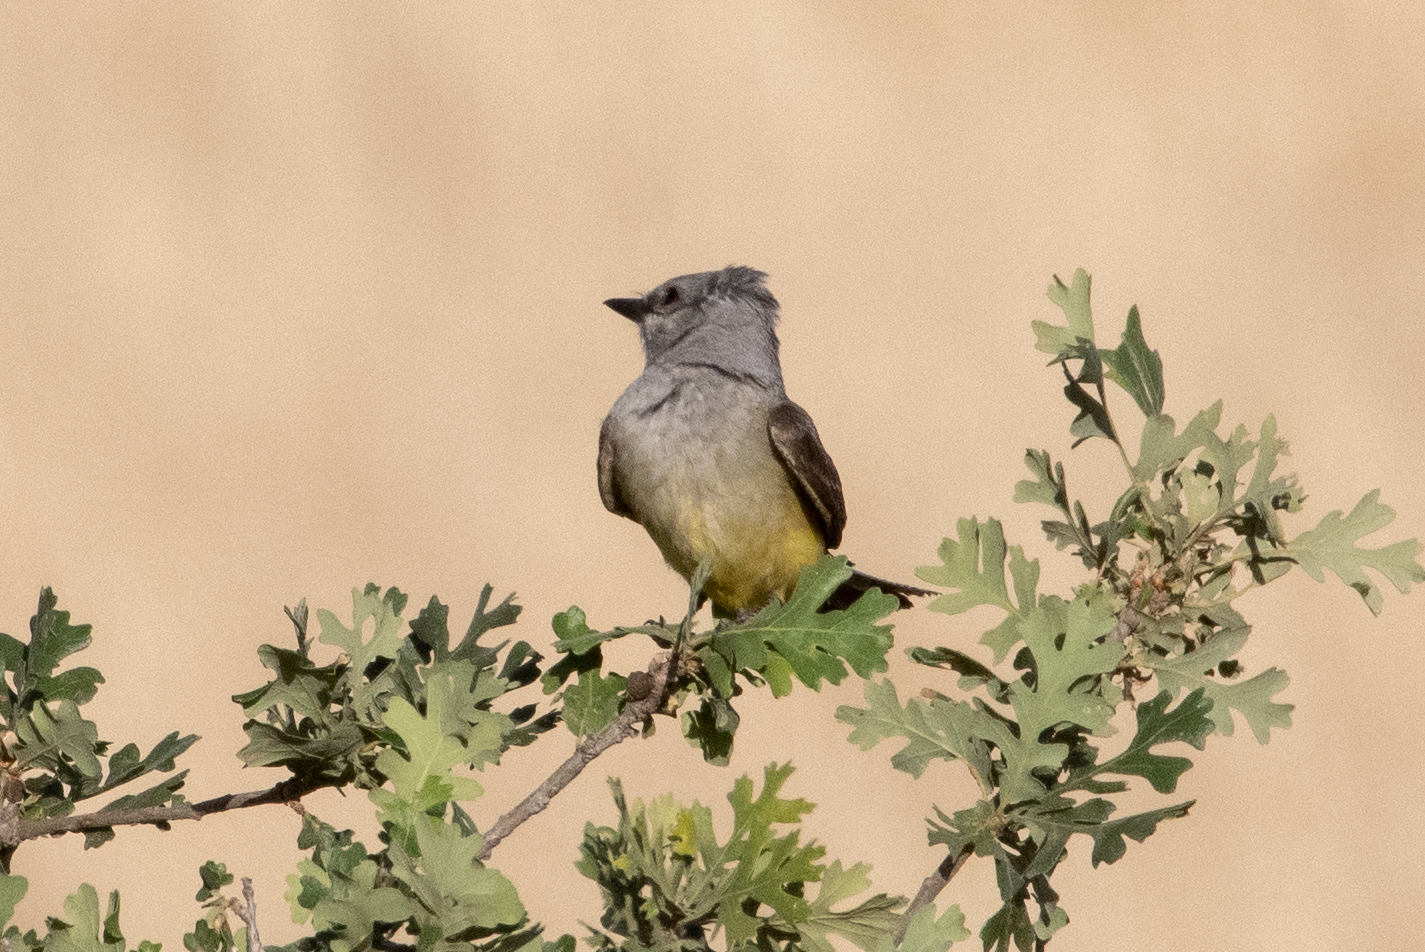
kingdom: Animalia
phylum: Chordata
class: Aves
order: Passeriformes
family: Tyrannidae
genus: Tyrannus
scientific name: Tyrannus verticalis
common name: Western kingbird
